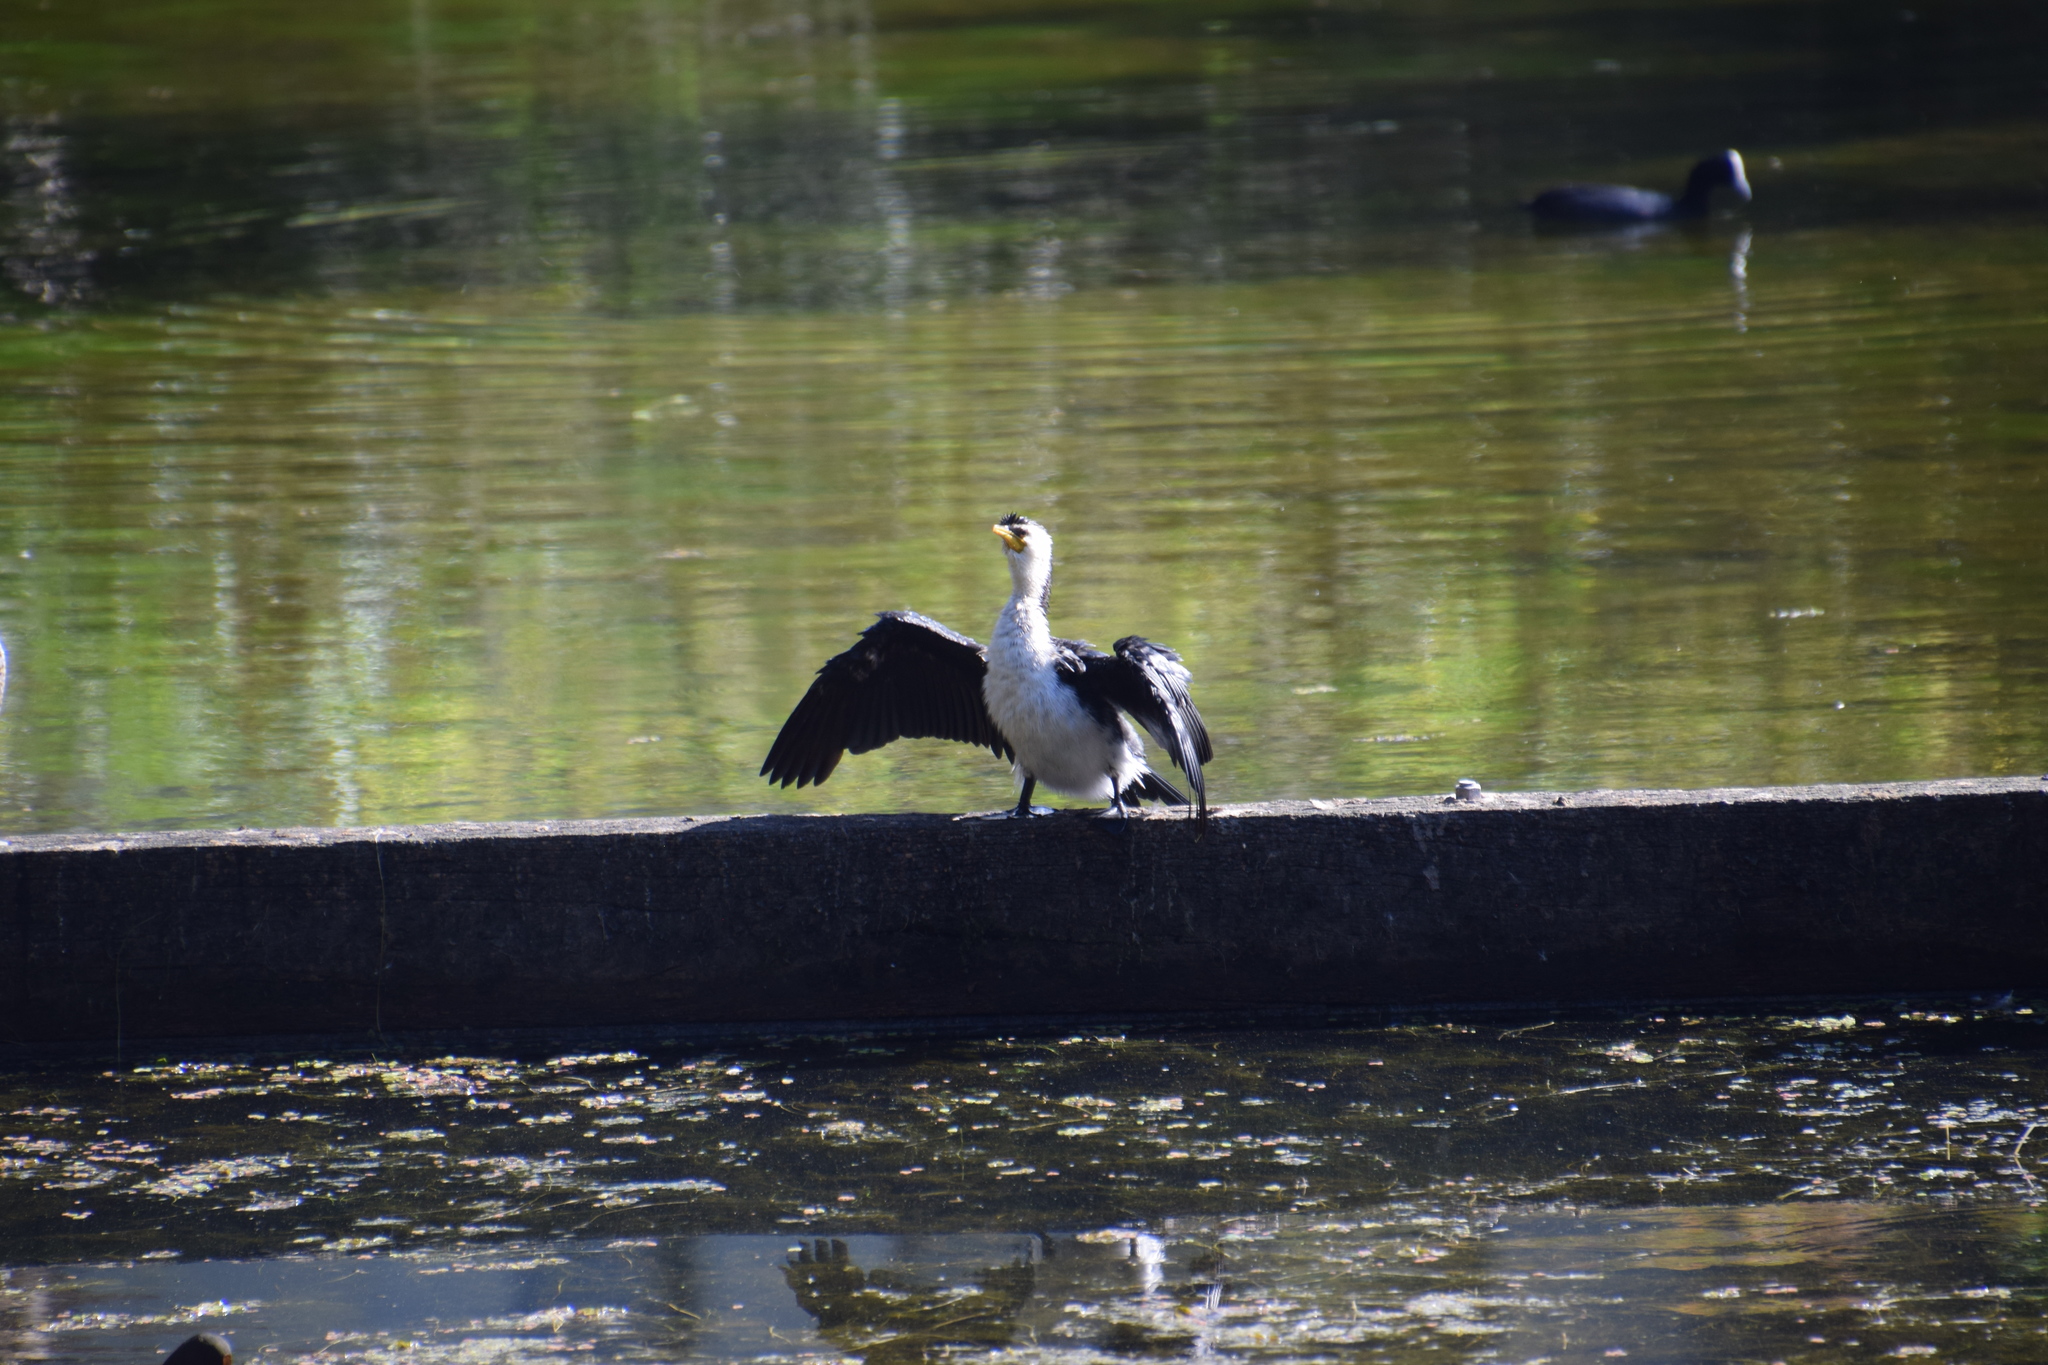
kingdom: Animalia
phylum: Chordata
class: Aves
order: Suliformes
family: Phalacrocoracidae
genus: Microcarbo
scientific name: Microcarbo melanoleucos
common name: Little pied cormorant
